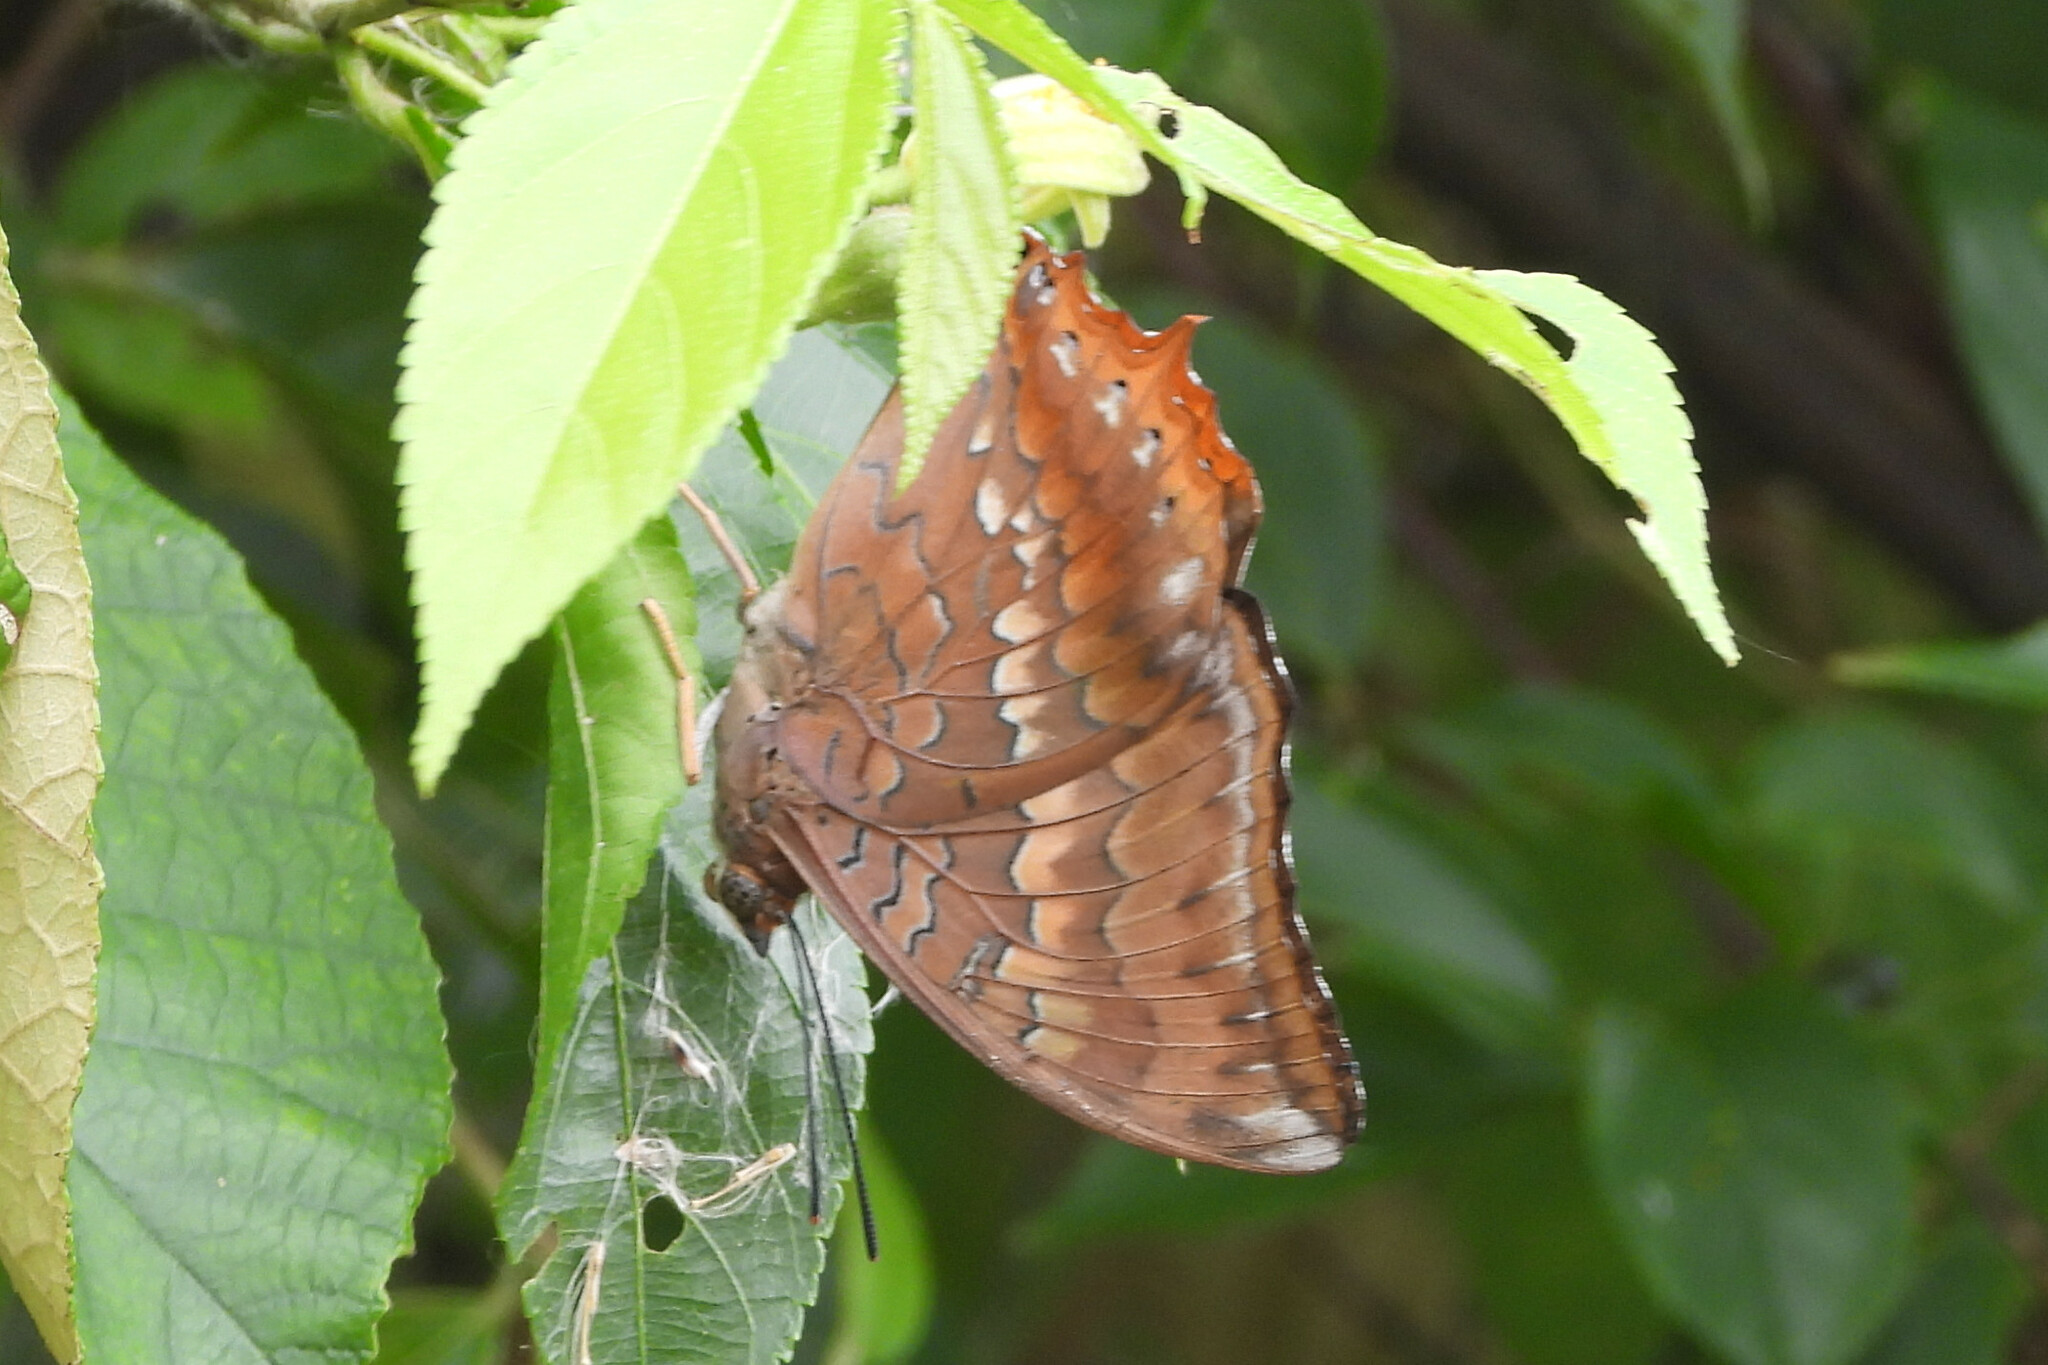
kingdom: Animalia
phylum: Arthropoda
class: Insecta
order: Lepidoptera
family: Nymphalidae
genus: Charaxes
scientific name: Charaxes bernardus
